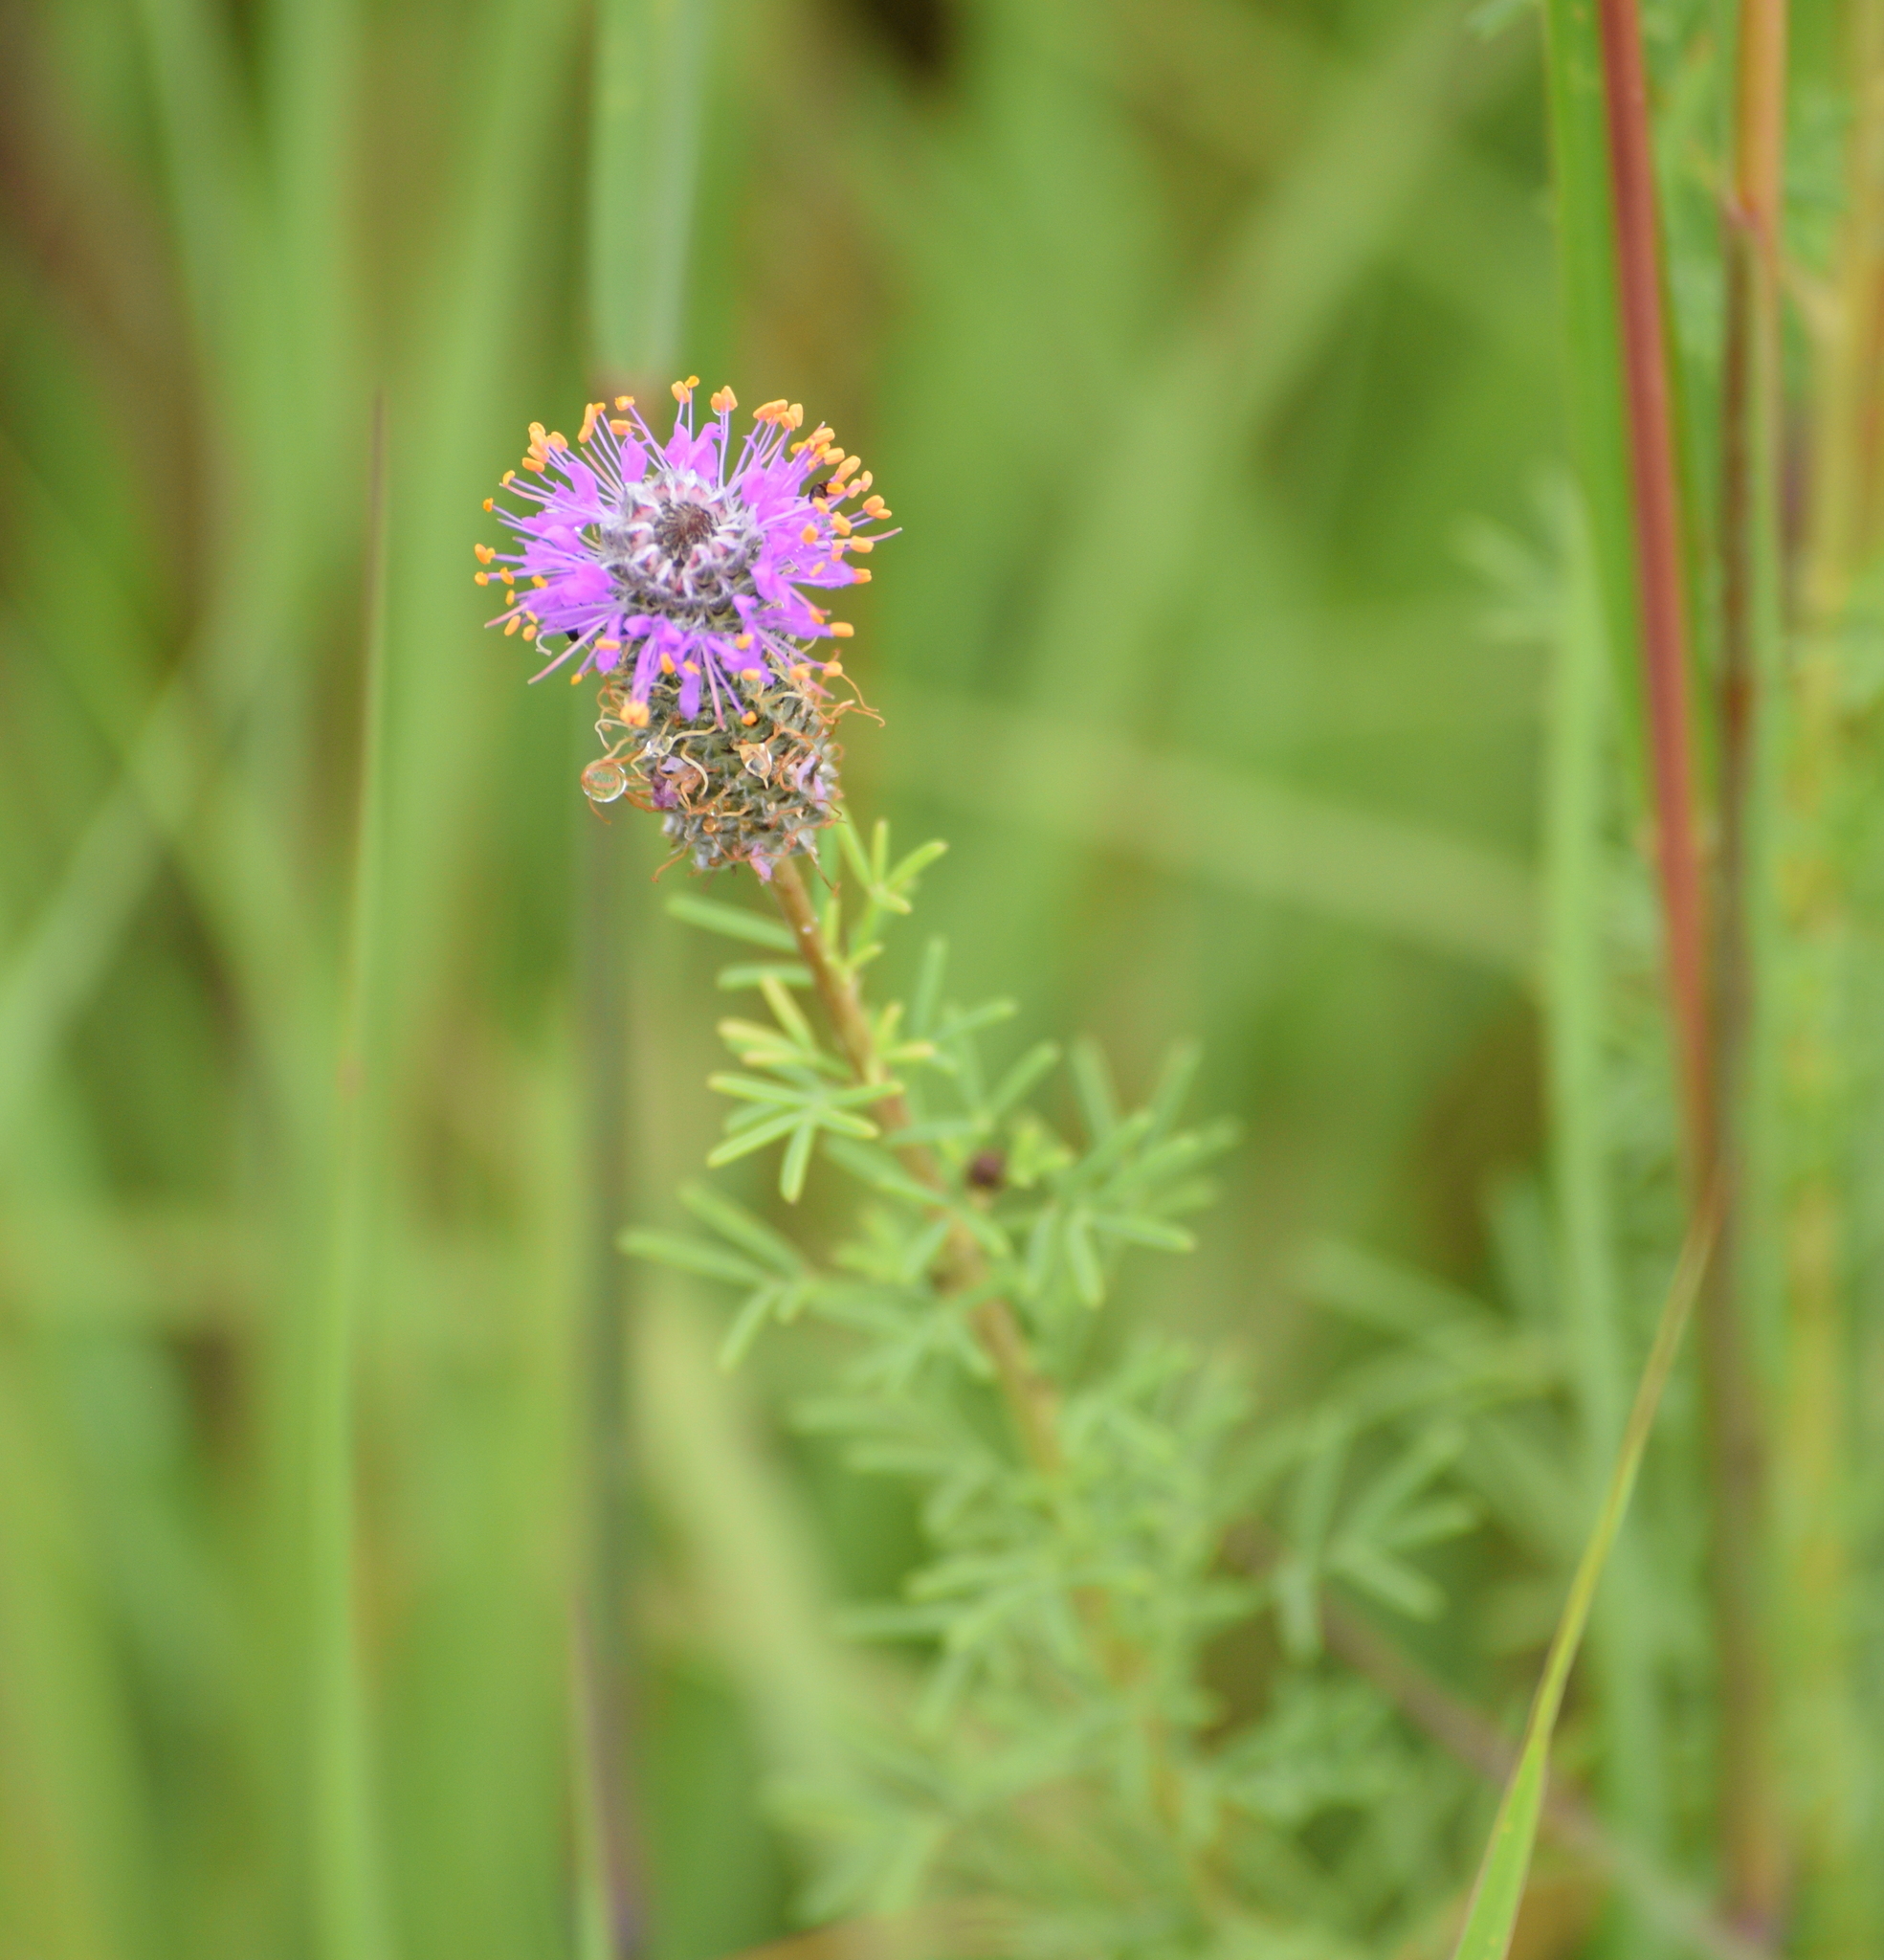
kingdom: Plantae
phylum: Tracheophyta
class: Magnoliopsida
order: Fabales
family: Fabaceae
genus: Dalea
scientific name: Dalea purpurea
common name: Purple prairie-clover
